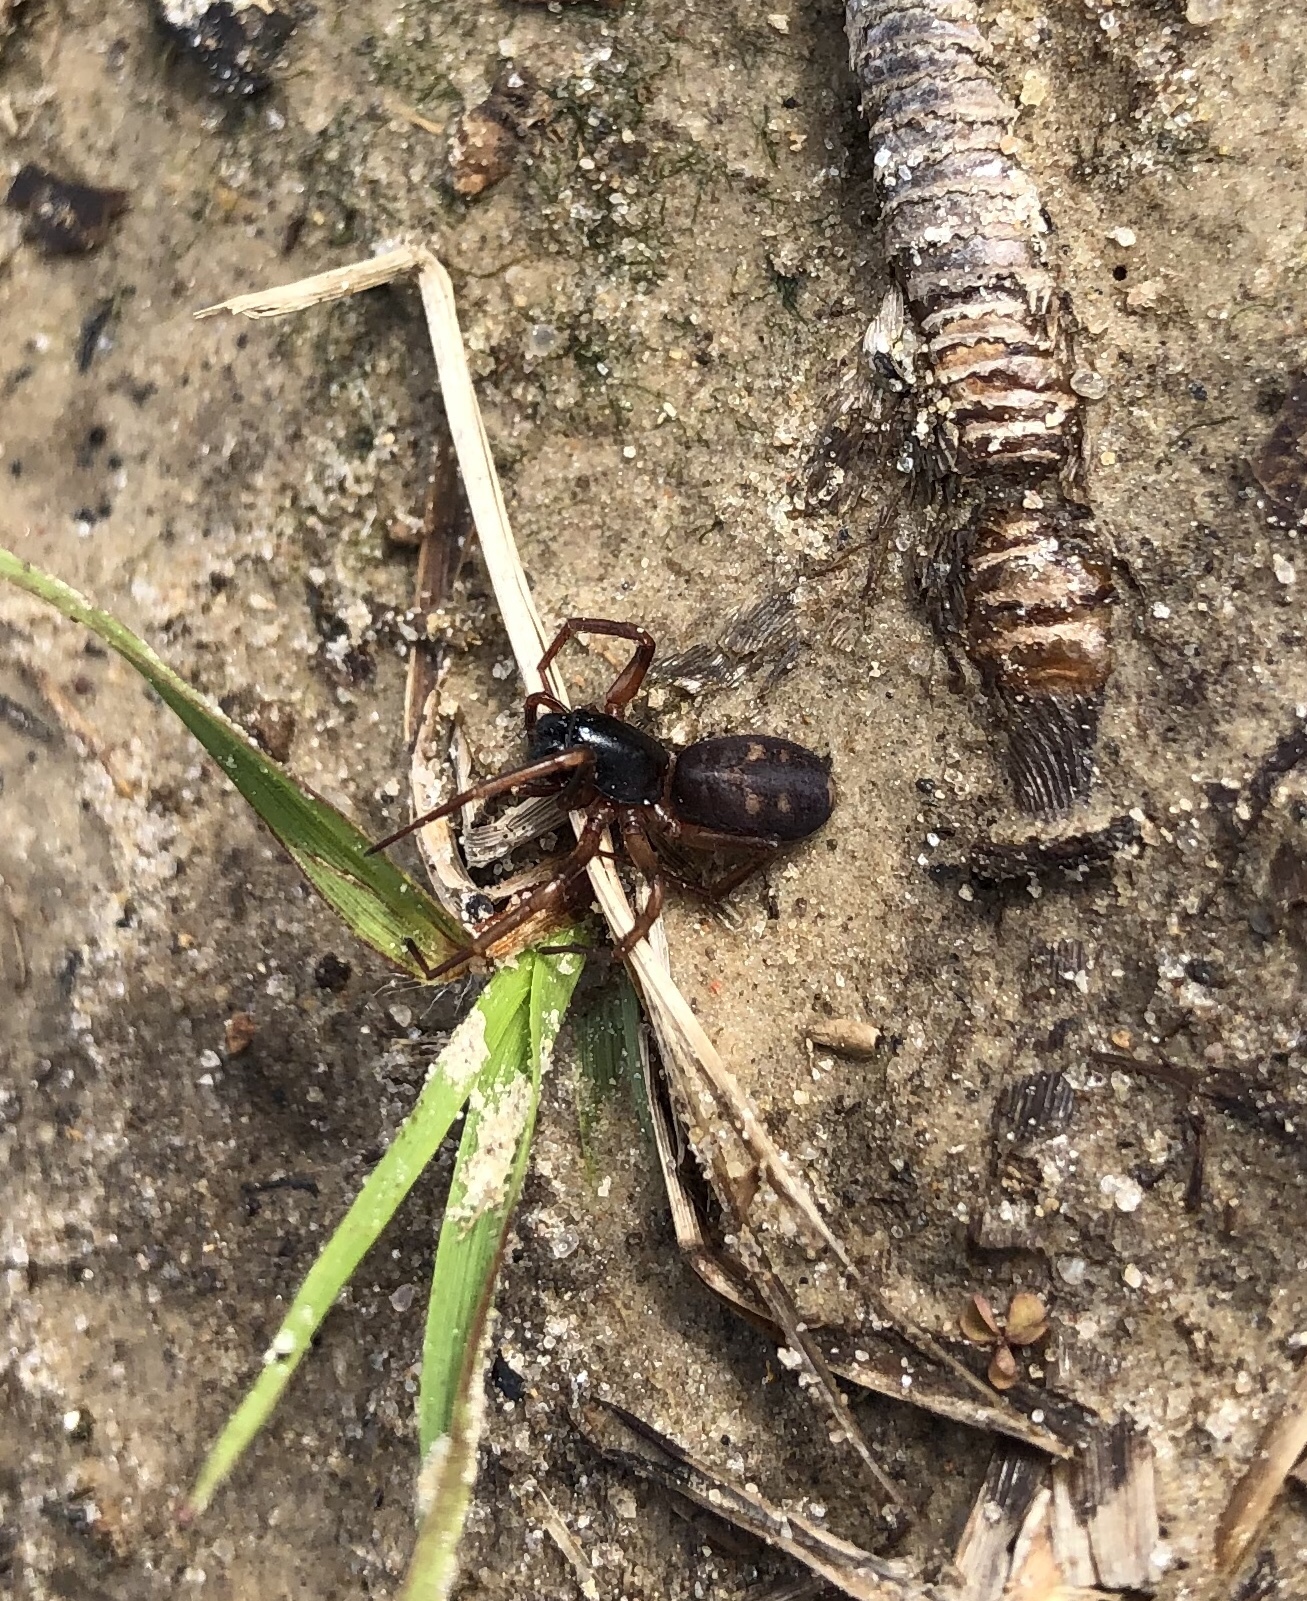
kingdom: Animalia
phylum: Arthropoda
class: Arachnida
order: Araneae
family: Corinnidae
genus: Falconina
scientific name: Falconina gracilis
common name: Antmimic spider
